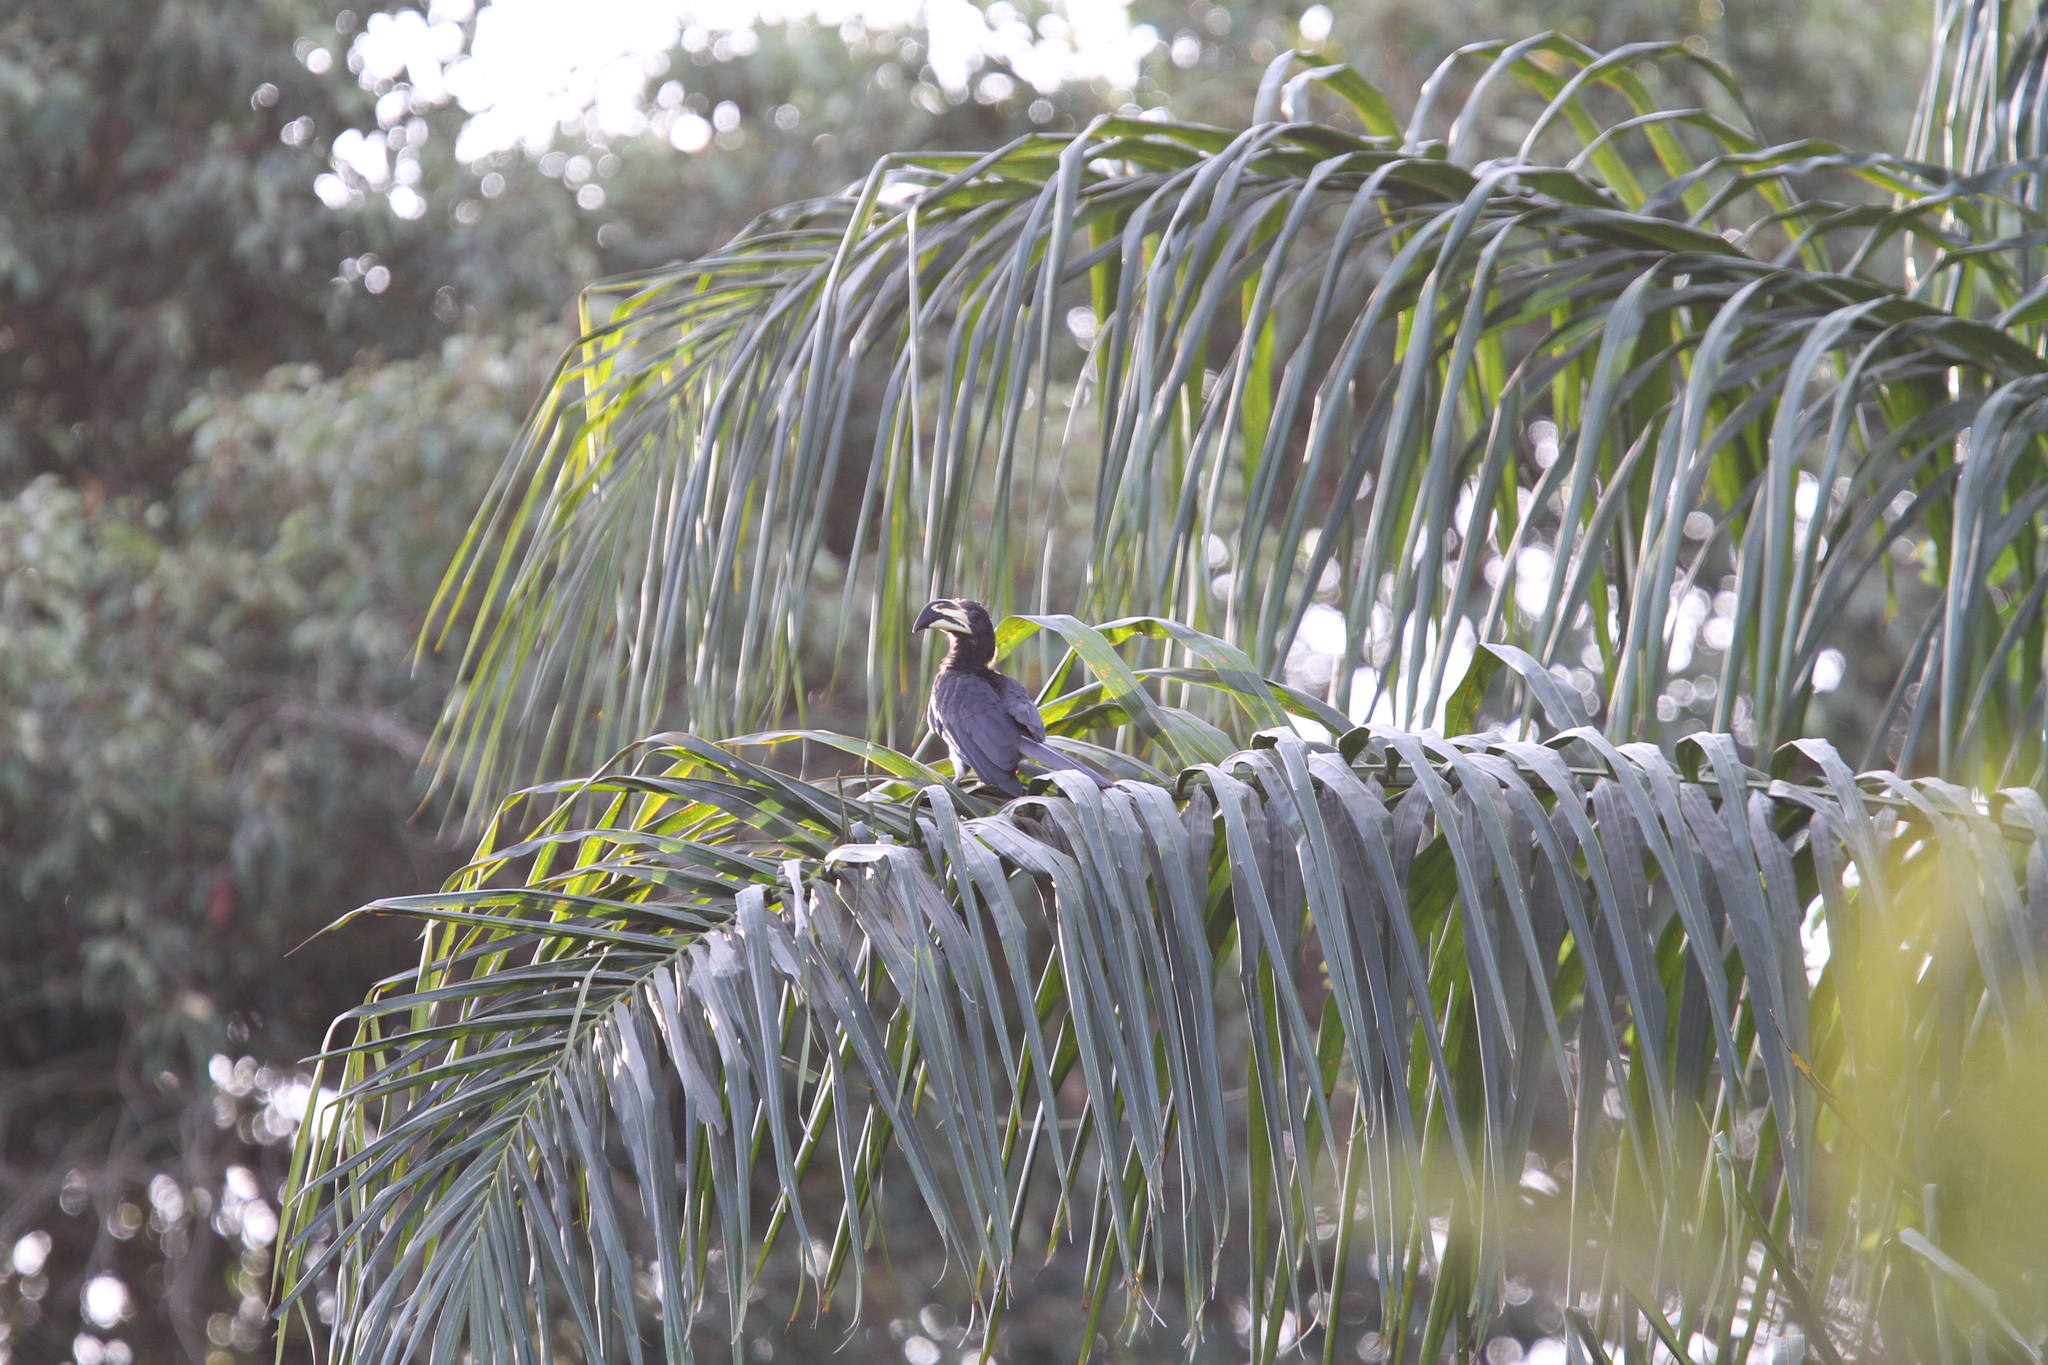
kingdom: Animalia
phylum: Chordata
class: Aves
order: Bucerotiformes
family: Bucerotidae
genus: Lophoceros
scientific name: Lophoceros fasciatus
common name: African pied hornbill
